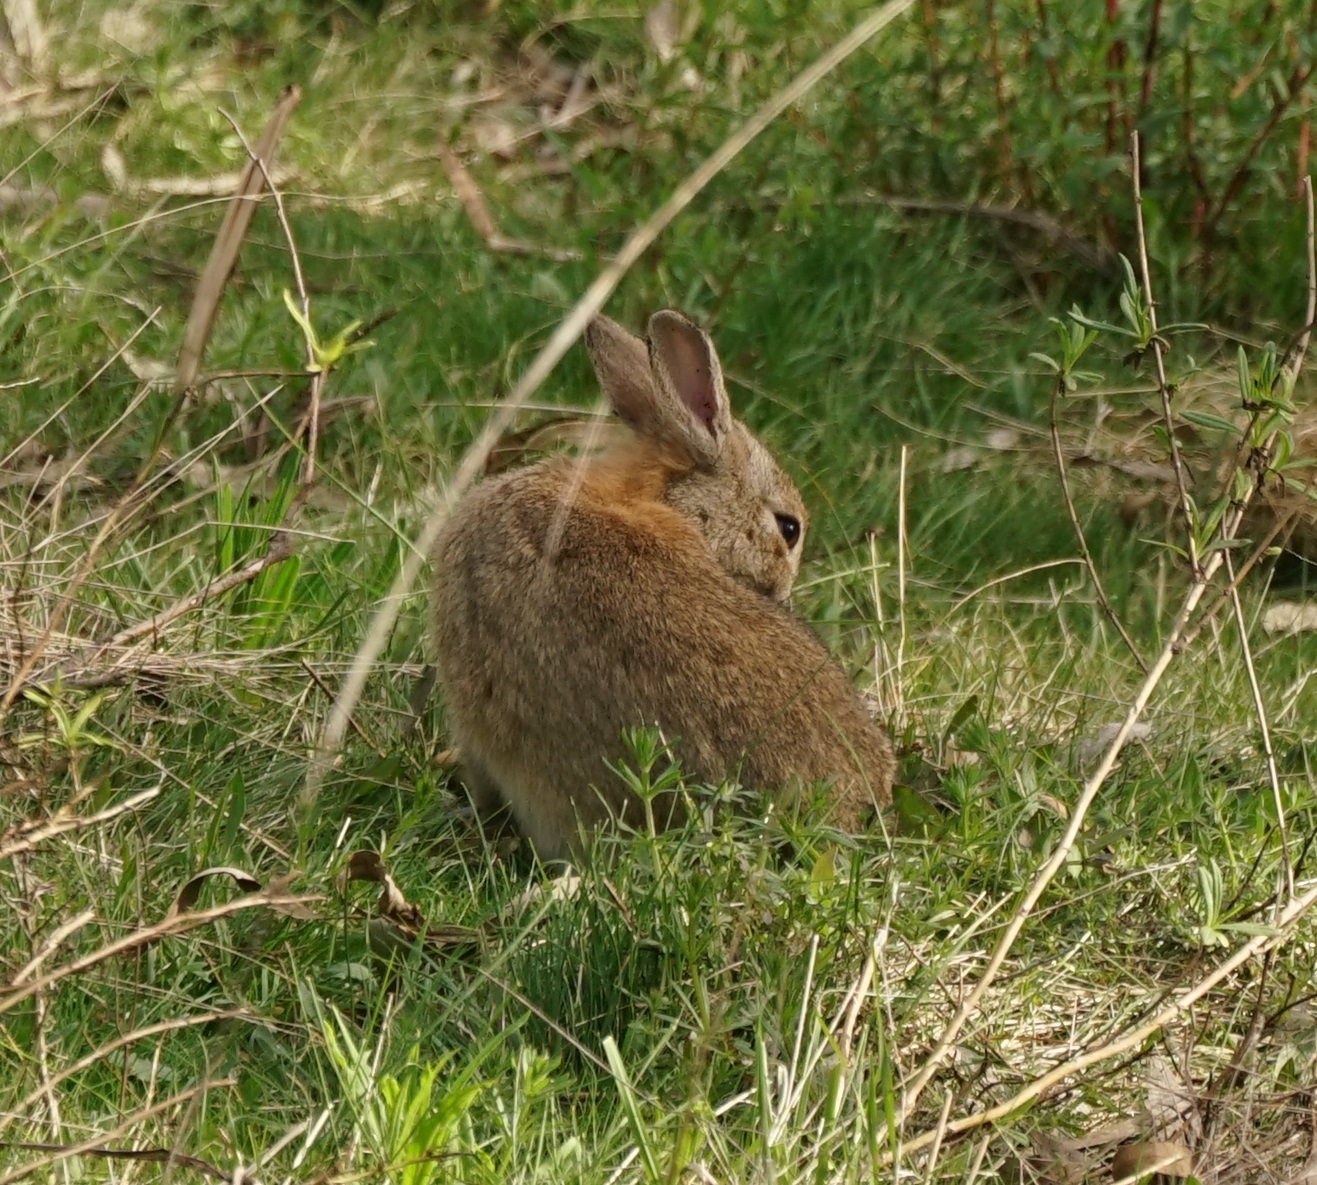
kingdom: Animalia
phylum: Chordata
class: Mammalia
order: Lagomorpha
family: Leporidae
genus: Oryctolagus
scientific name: Oryctolagus cuniculus
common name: European rabbit
